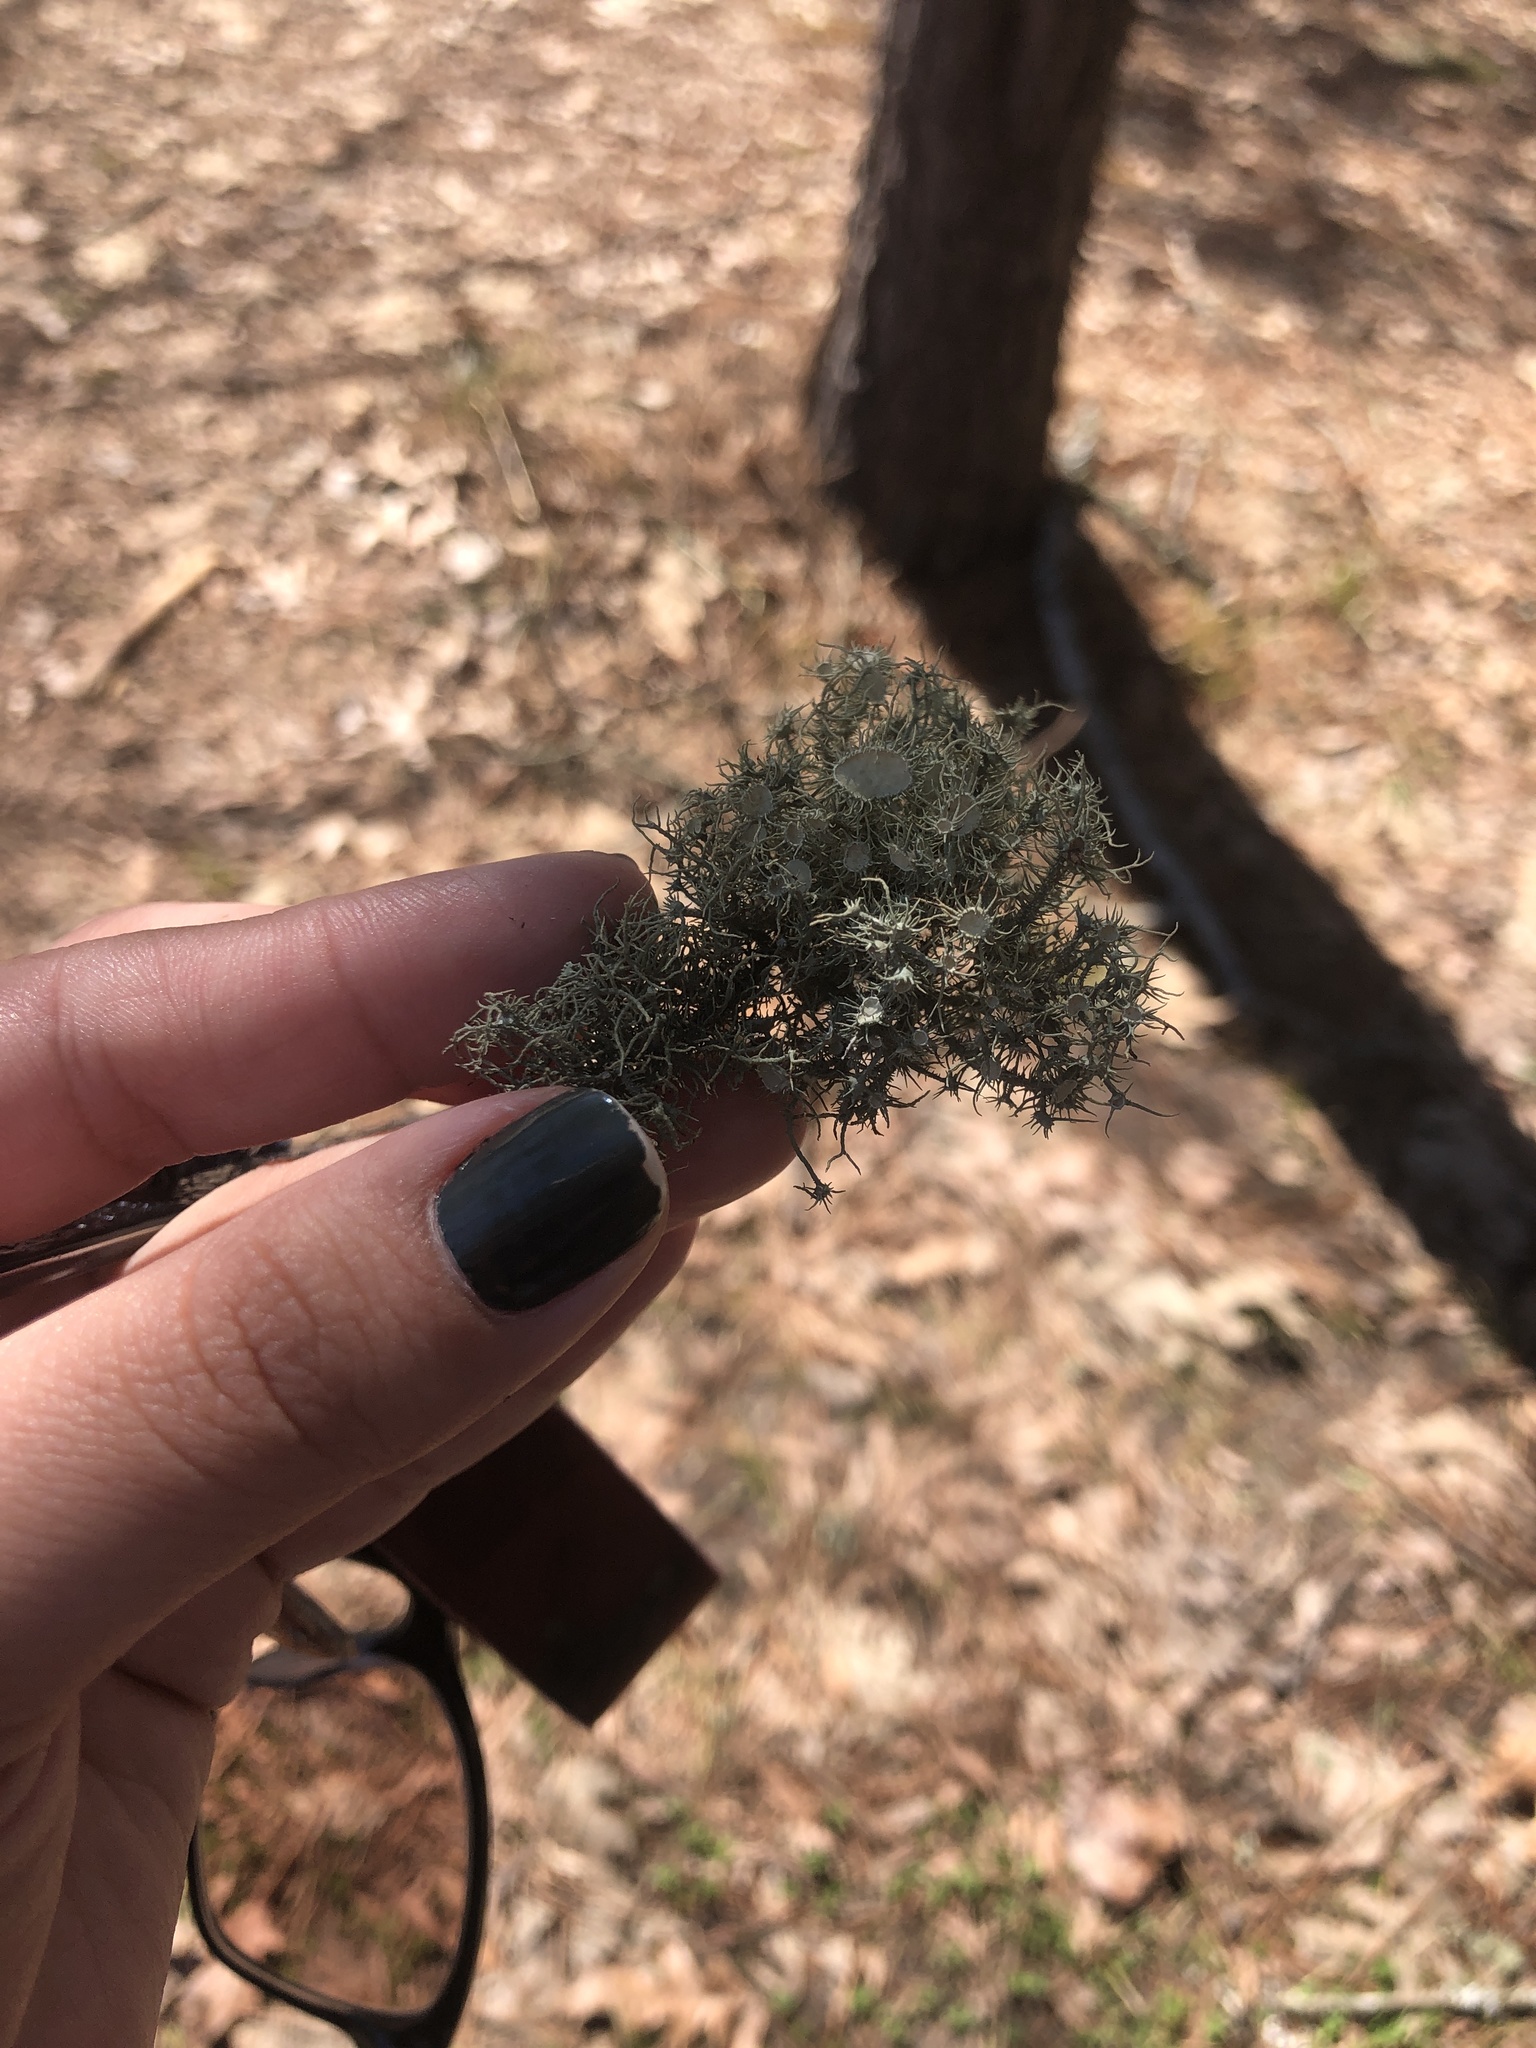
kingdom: Fungi
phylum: Ascomycota
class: Lecanoromycetes
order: Lecanorales
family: Parmeliaceae
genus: Usnea
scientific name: Usnea strigosa
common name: Bushy beard lichen
